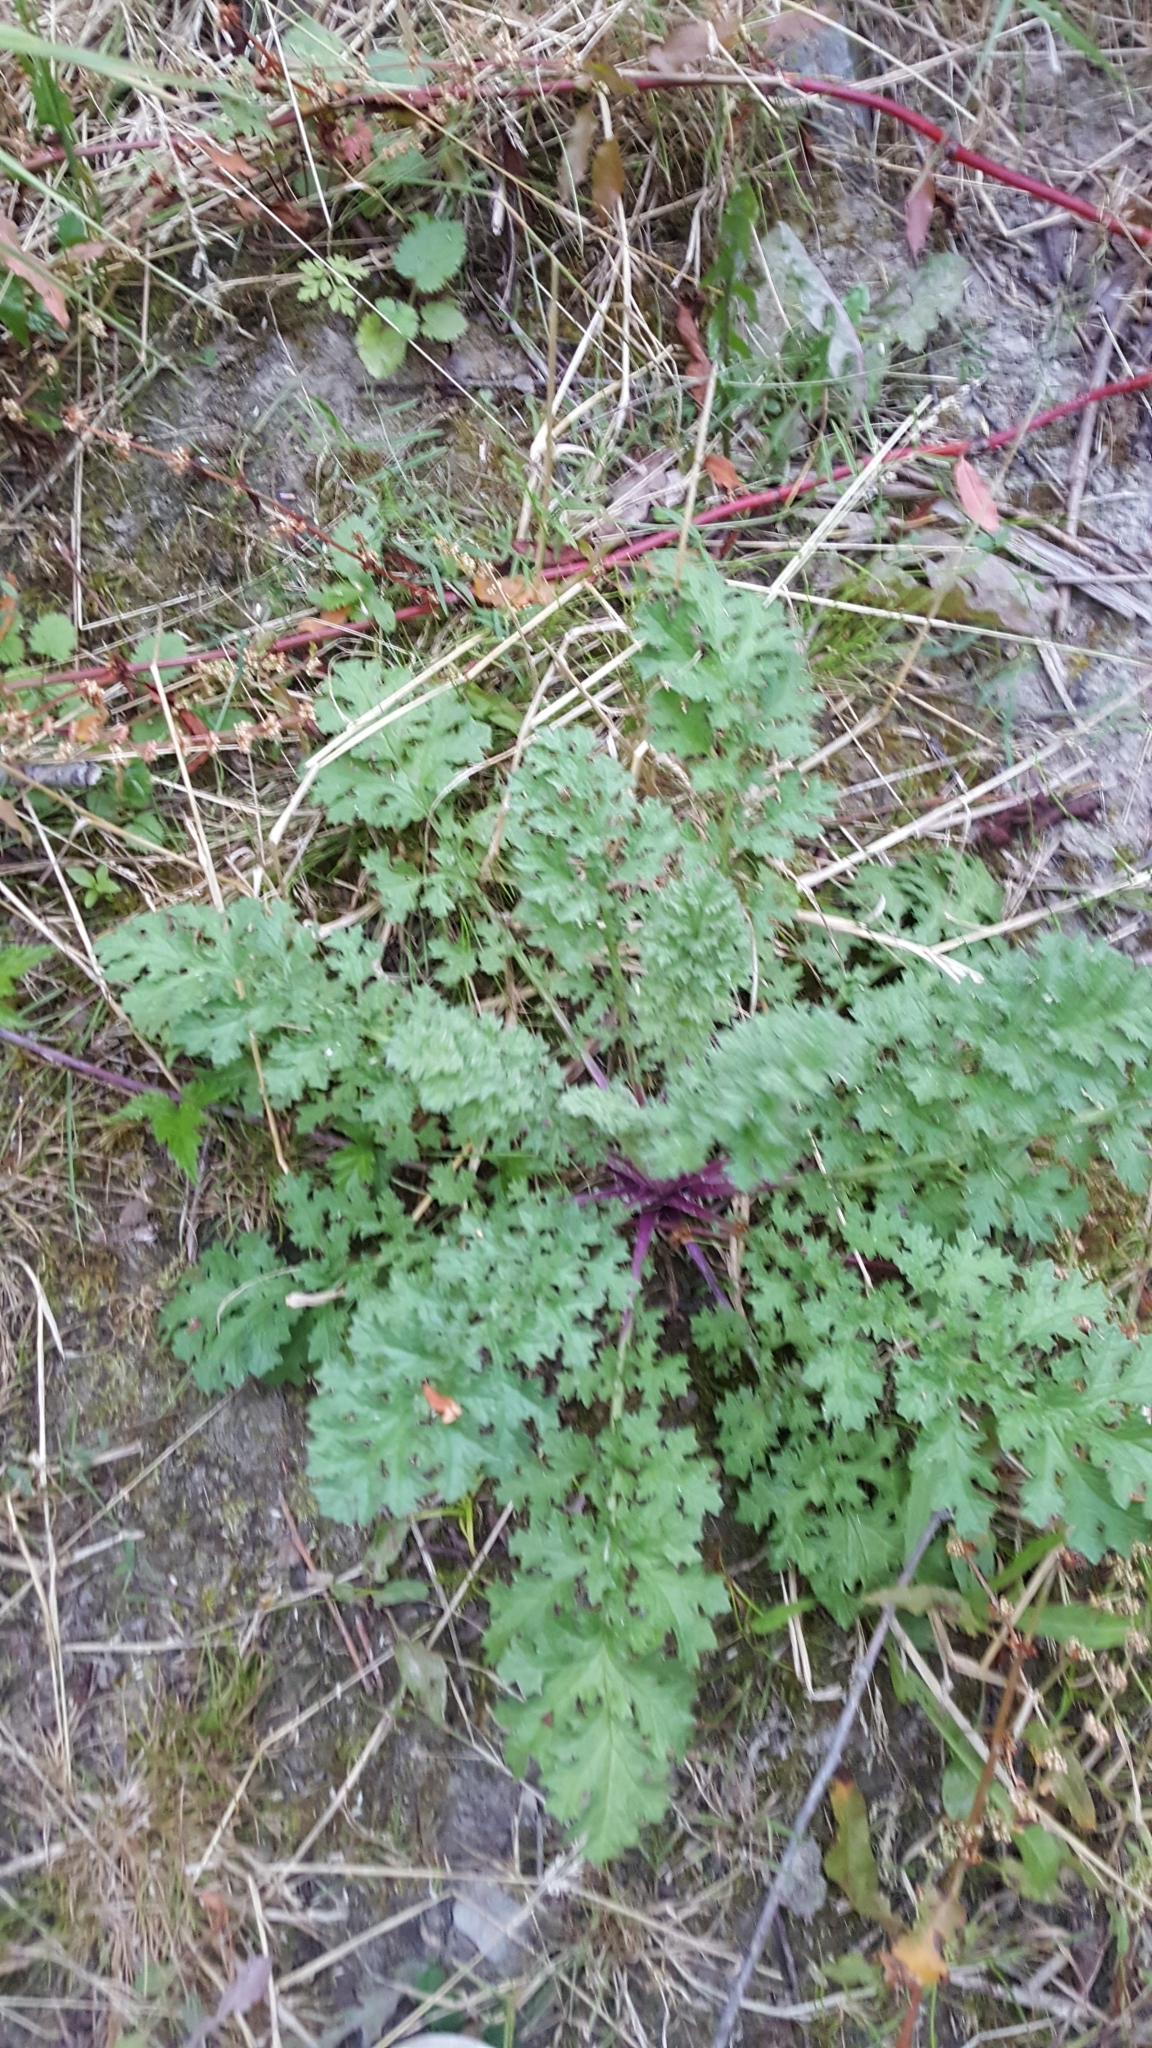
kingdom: Plantae
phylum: Tracheophyta
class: Magnoliopsida
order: Asterales
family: Asteraceae
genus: Jacobaea
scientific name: Jacobaea vulgaris
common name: Stinking willie
